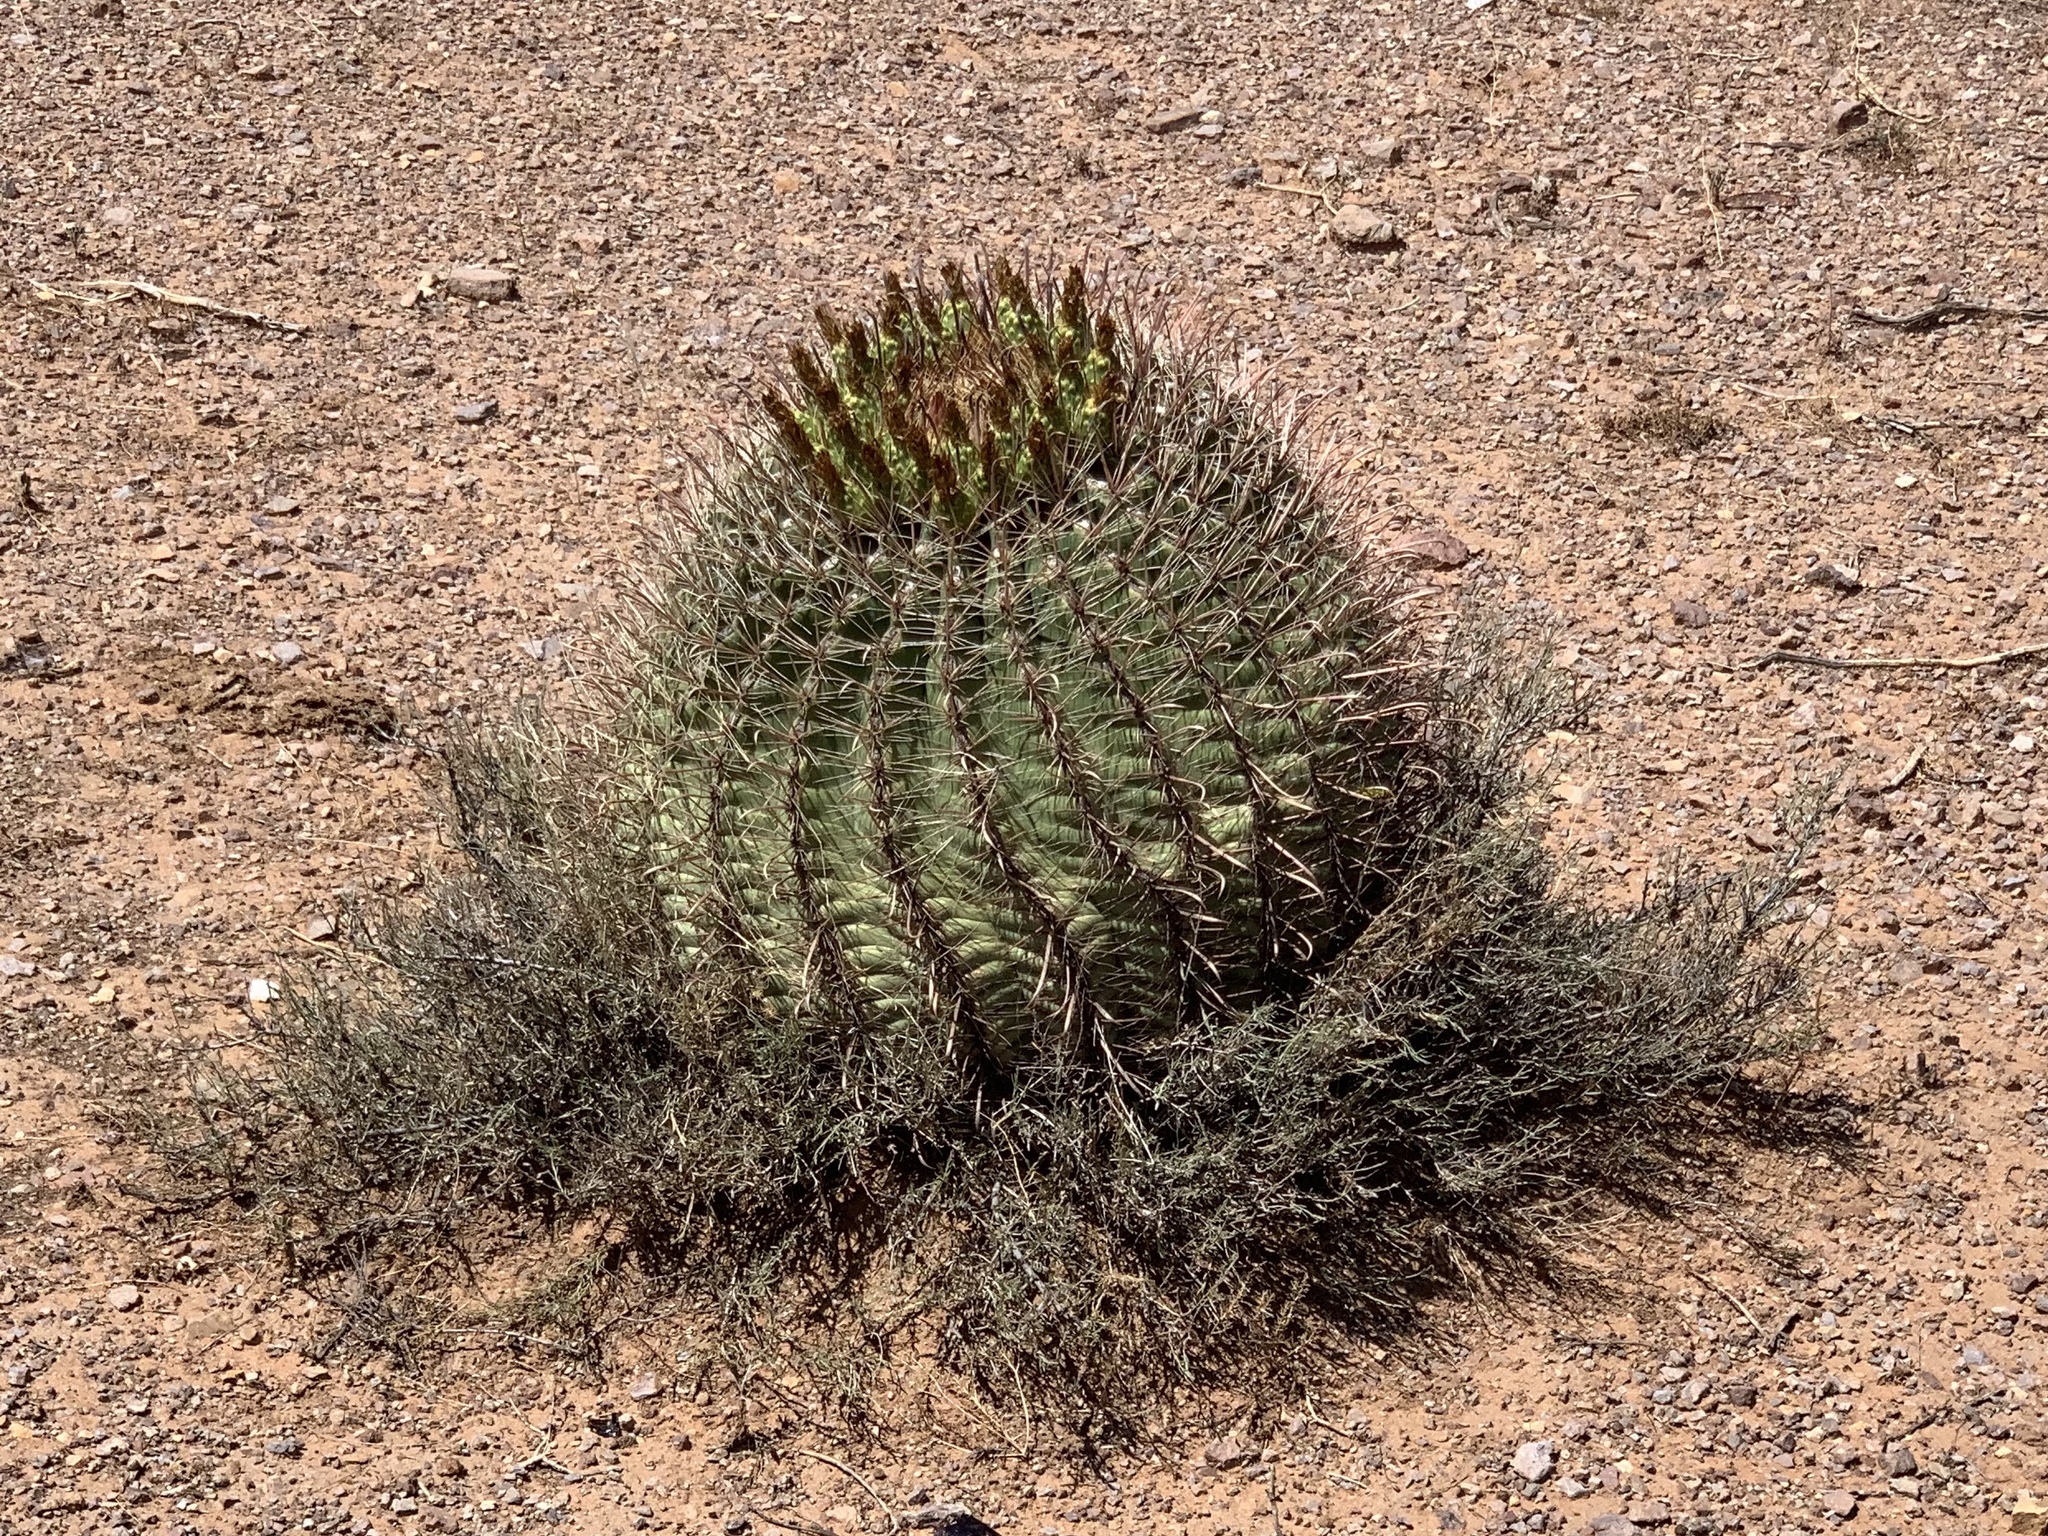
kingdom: Plantae
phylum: Tracheophyta
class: Magnoliopsida
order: Caryophyllales
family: Cactaceae
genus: Ferocactus
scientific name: Ferocactus wislizeni
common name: Candy barrel cactus
